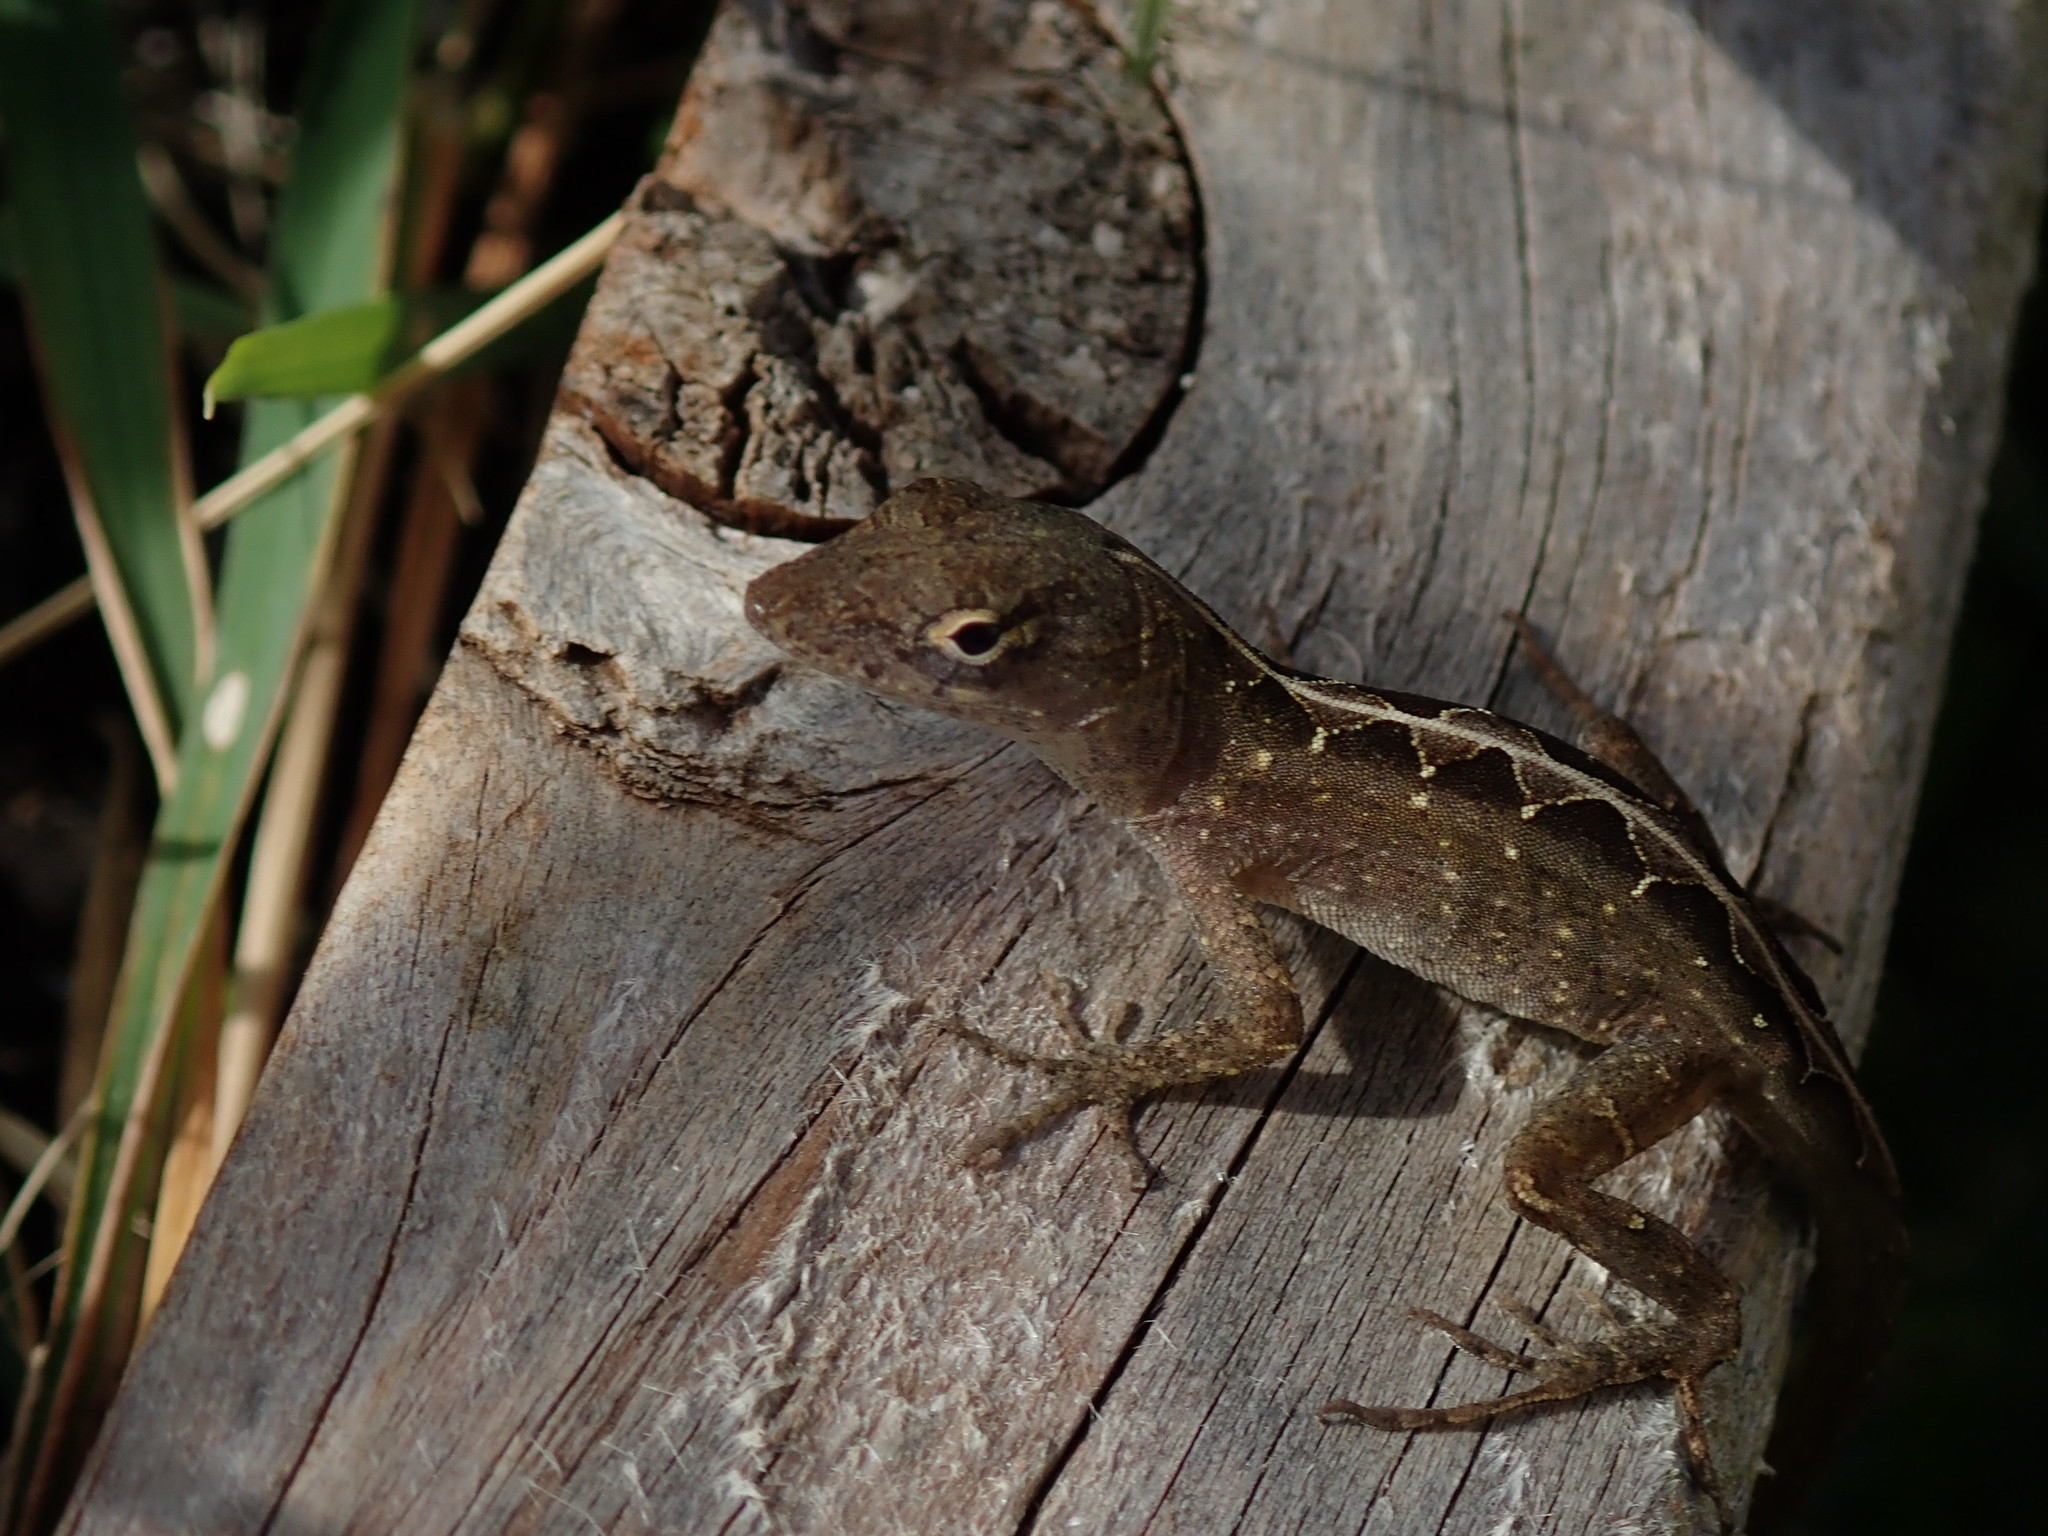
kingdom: Animalia
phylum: Chordata
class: Squamata
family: Dactyloidae
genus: Anolis
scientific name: Anolis sagrei
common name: Brown anole
